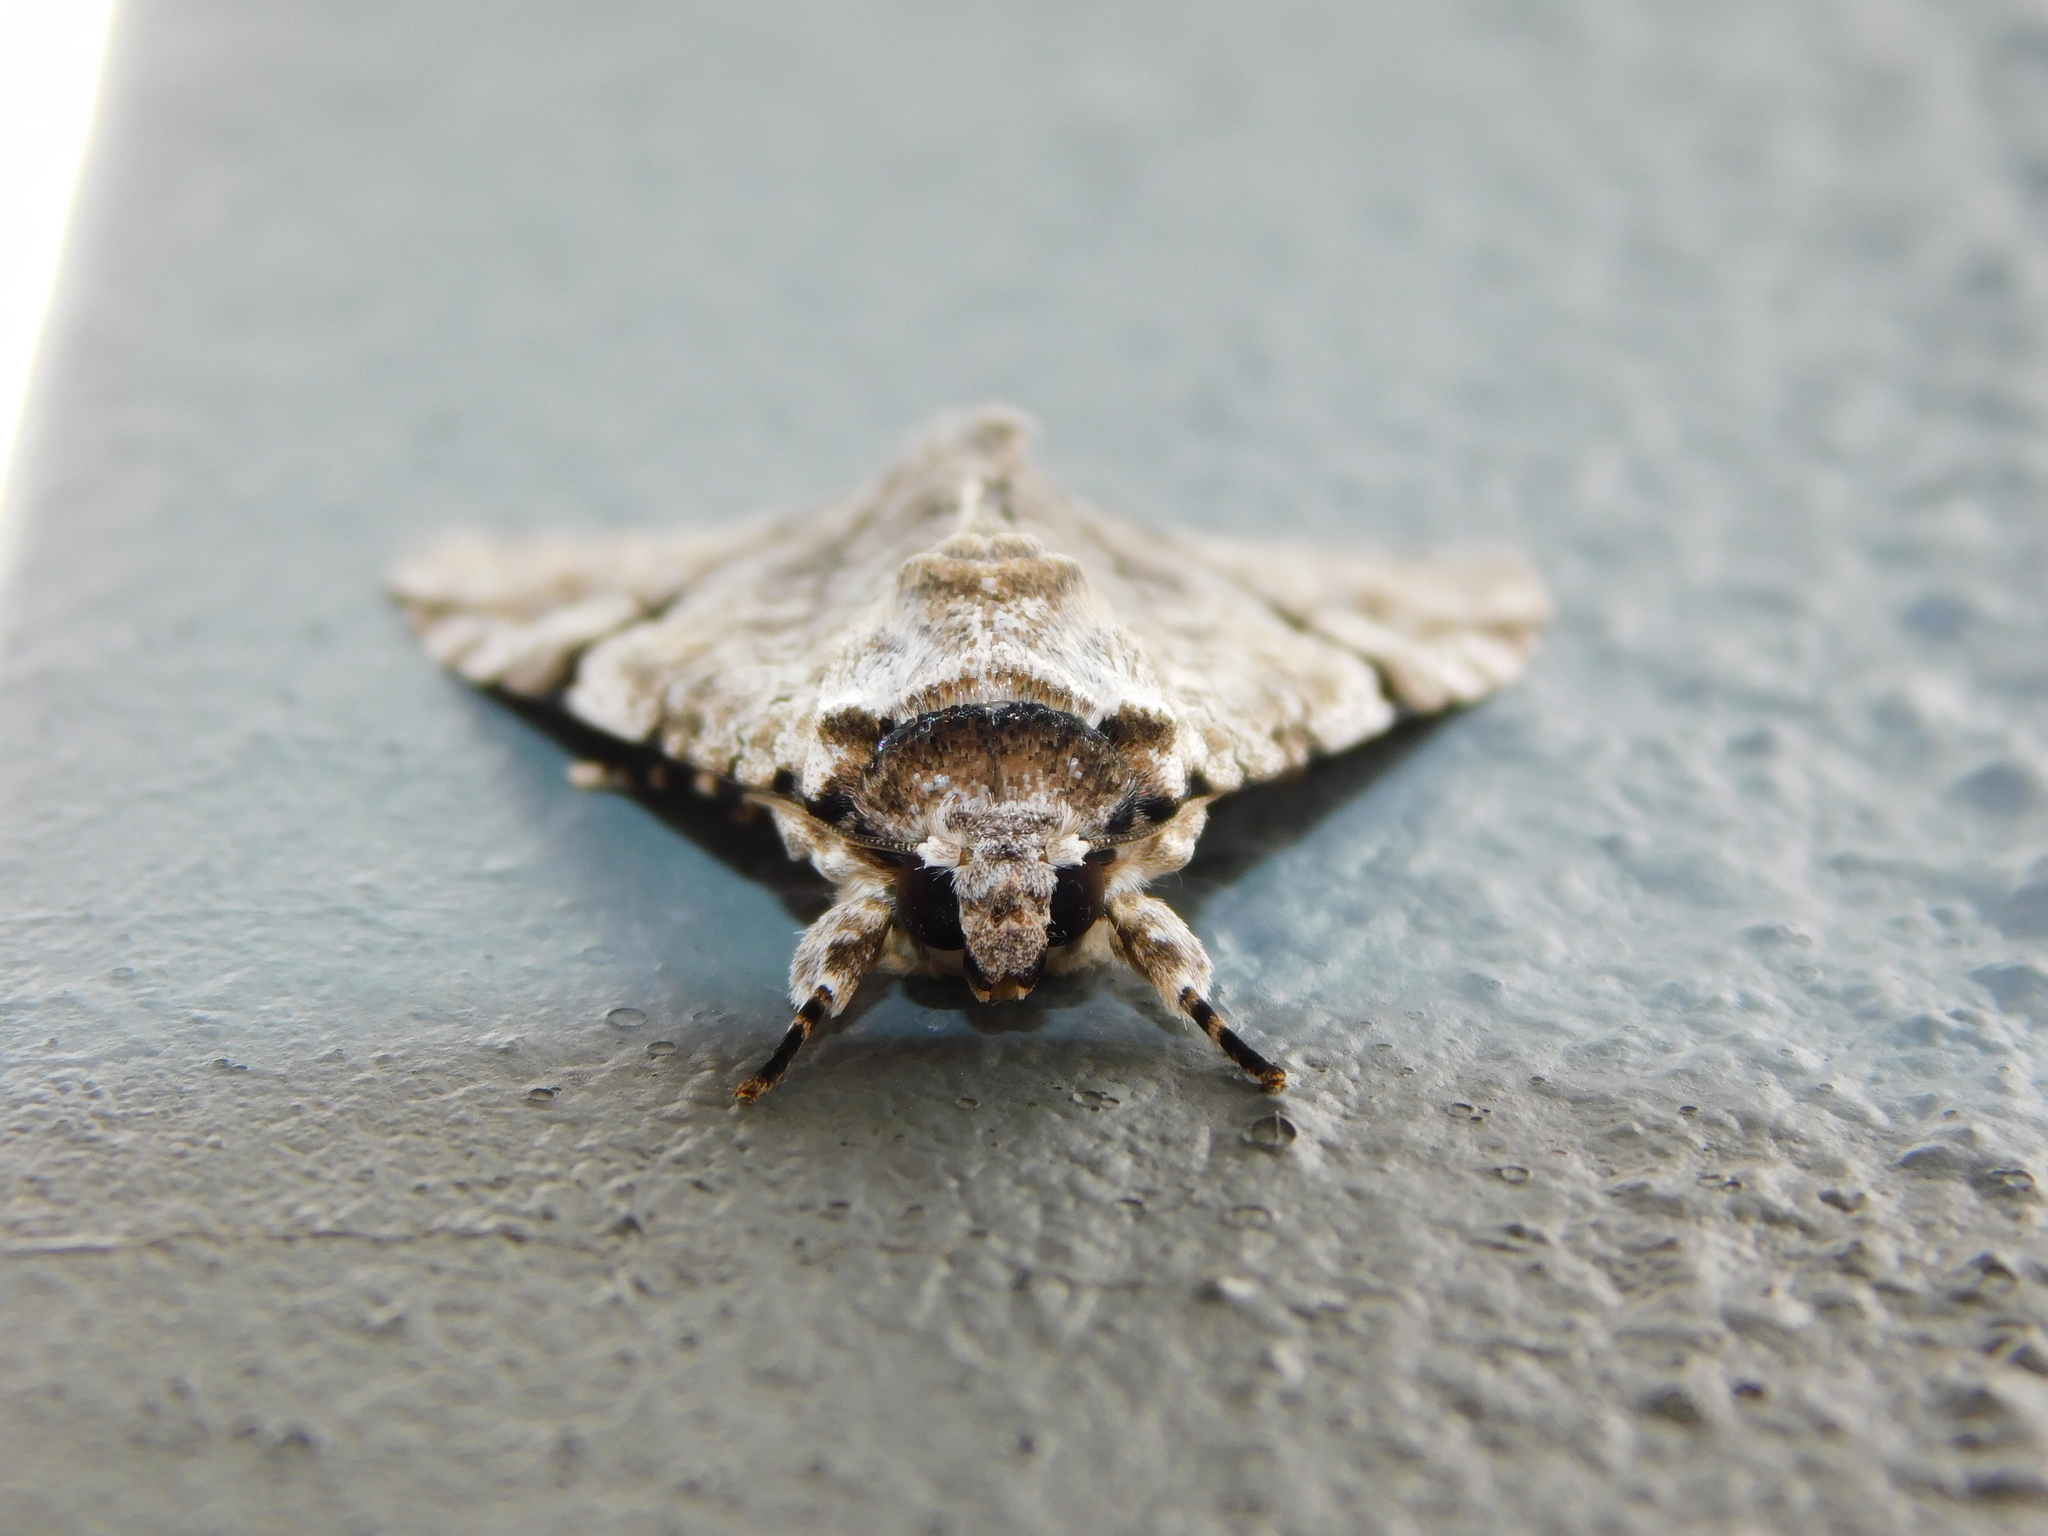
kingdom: Animalia
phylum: Arthropoda
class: Insecta
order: Lepidoptera
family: Erebidae
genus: Bamra
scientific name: Bamra mundata
